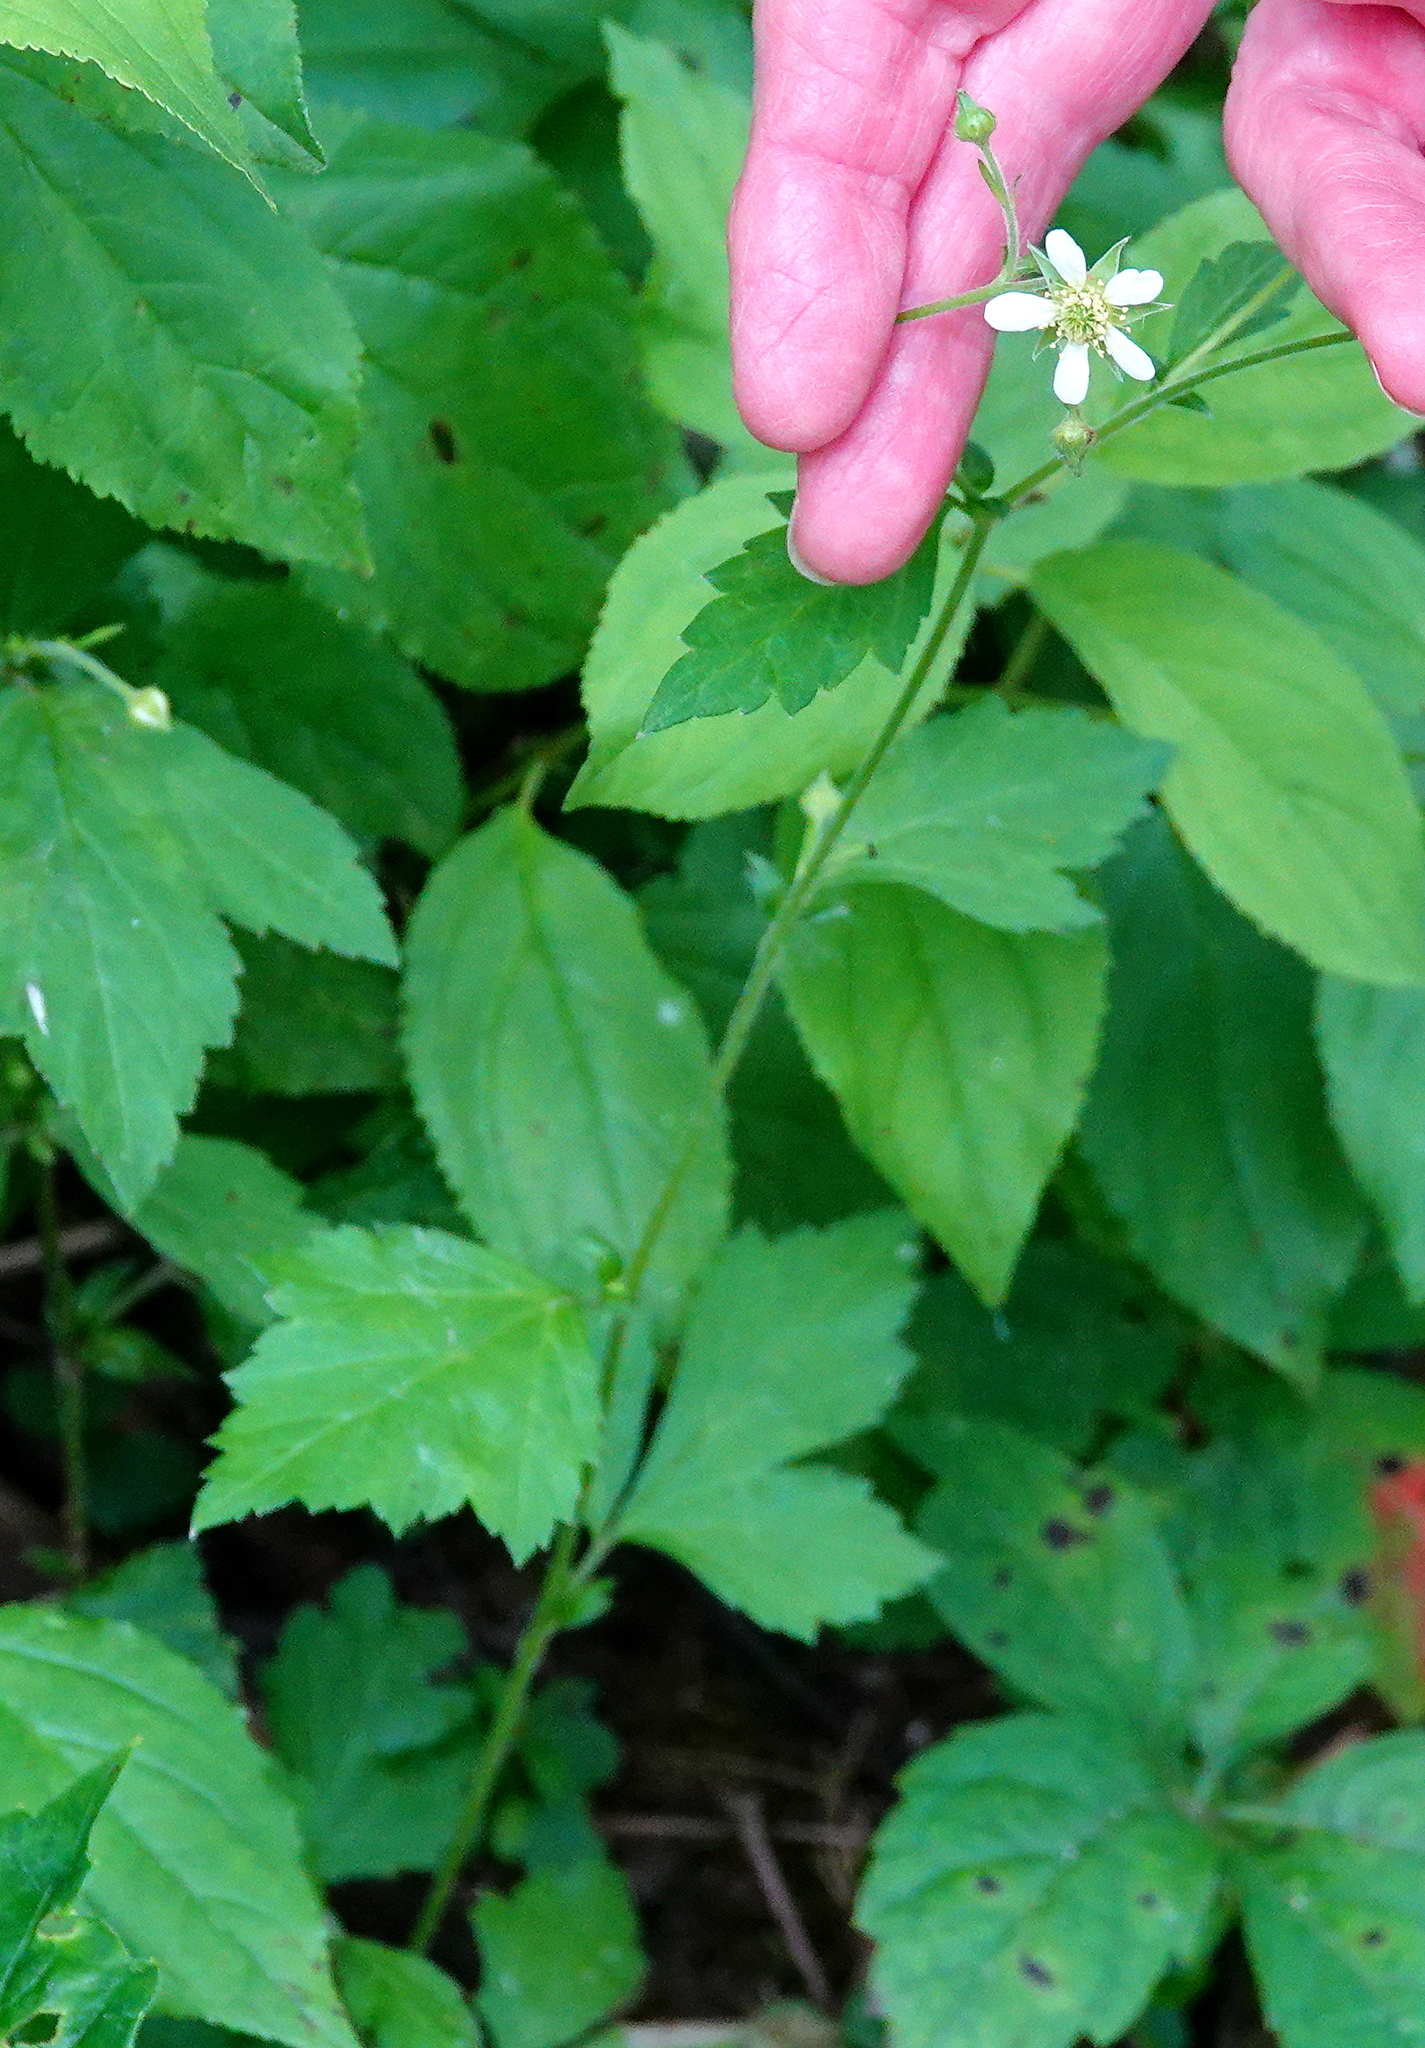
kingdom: Plantae
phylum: Tracheophyta
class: Magnoliopsida
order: Rosales
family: Rosaceae
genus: Geum
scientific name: Geum canadense
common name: White avens
